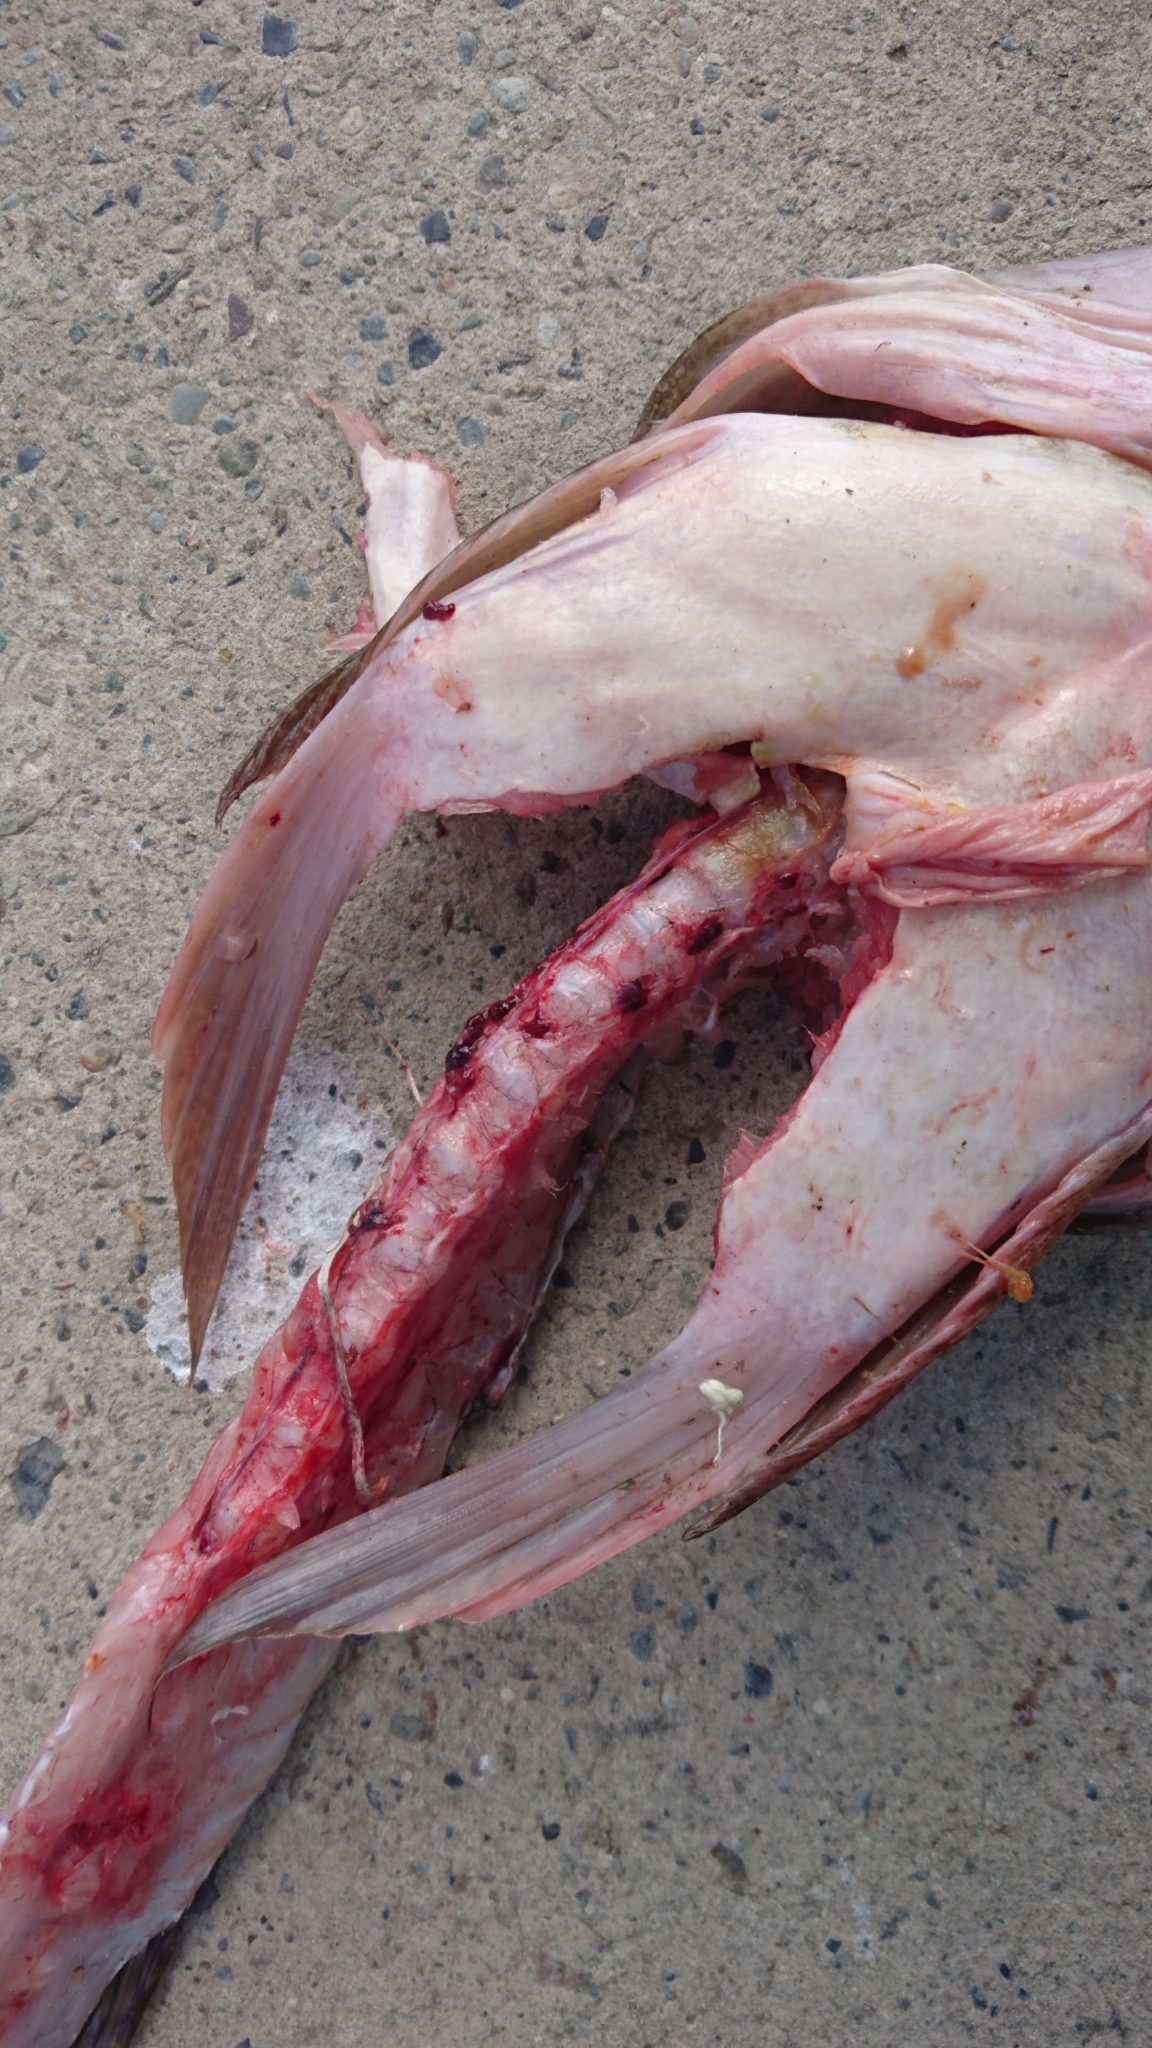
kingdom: Animalia
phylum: Chordata
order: Scorpaeniformes
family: Platycephalidae
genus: Platycephalus
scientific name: Platycephalus fuscus
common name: Dusky flathead
